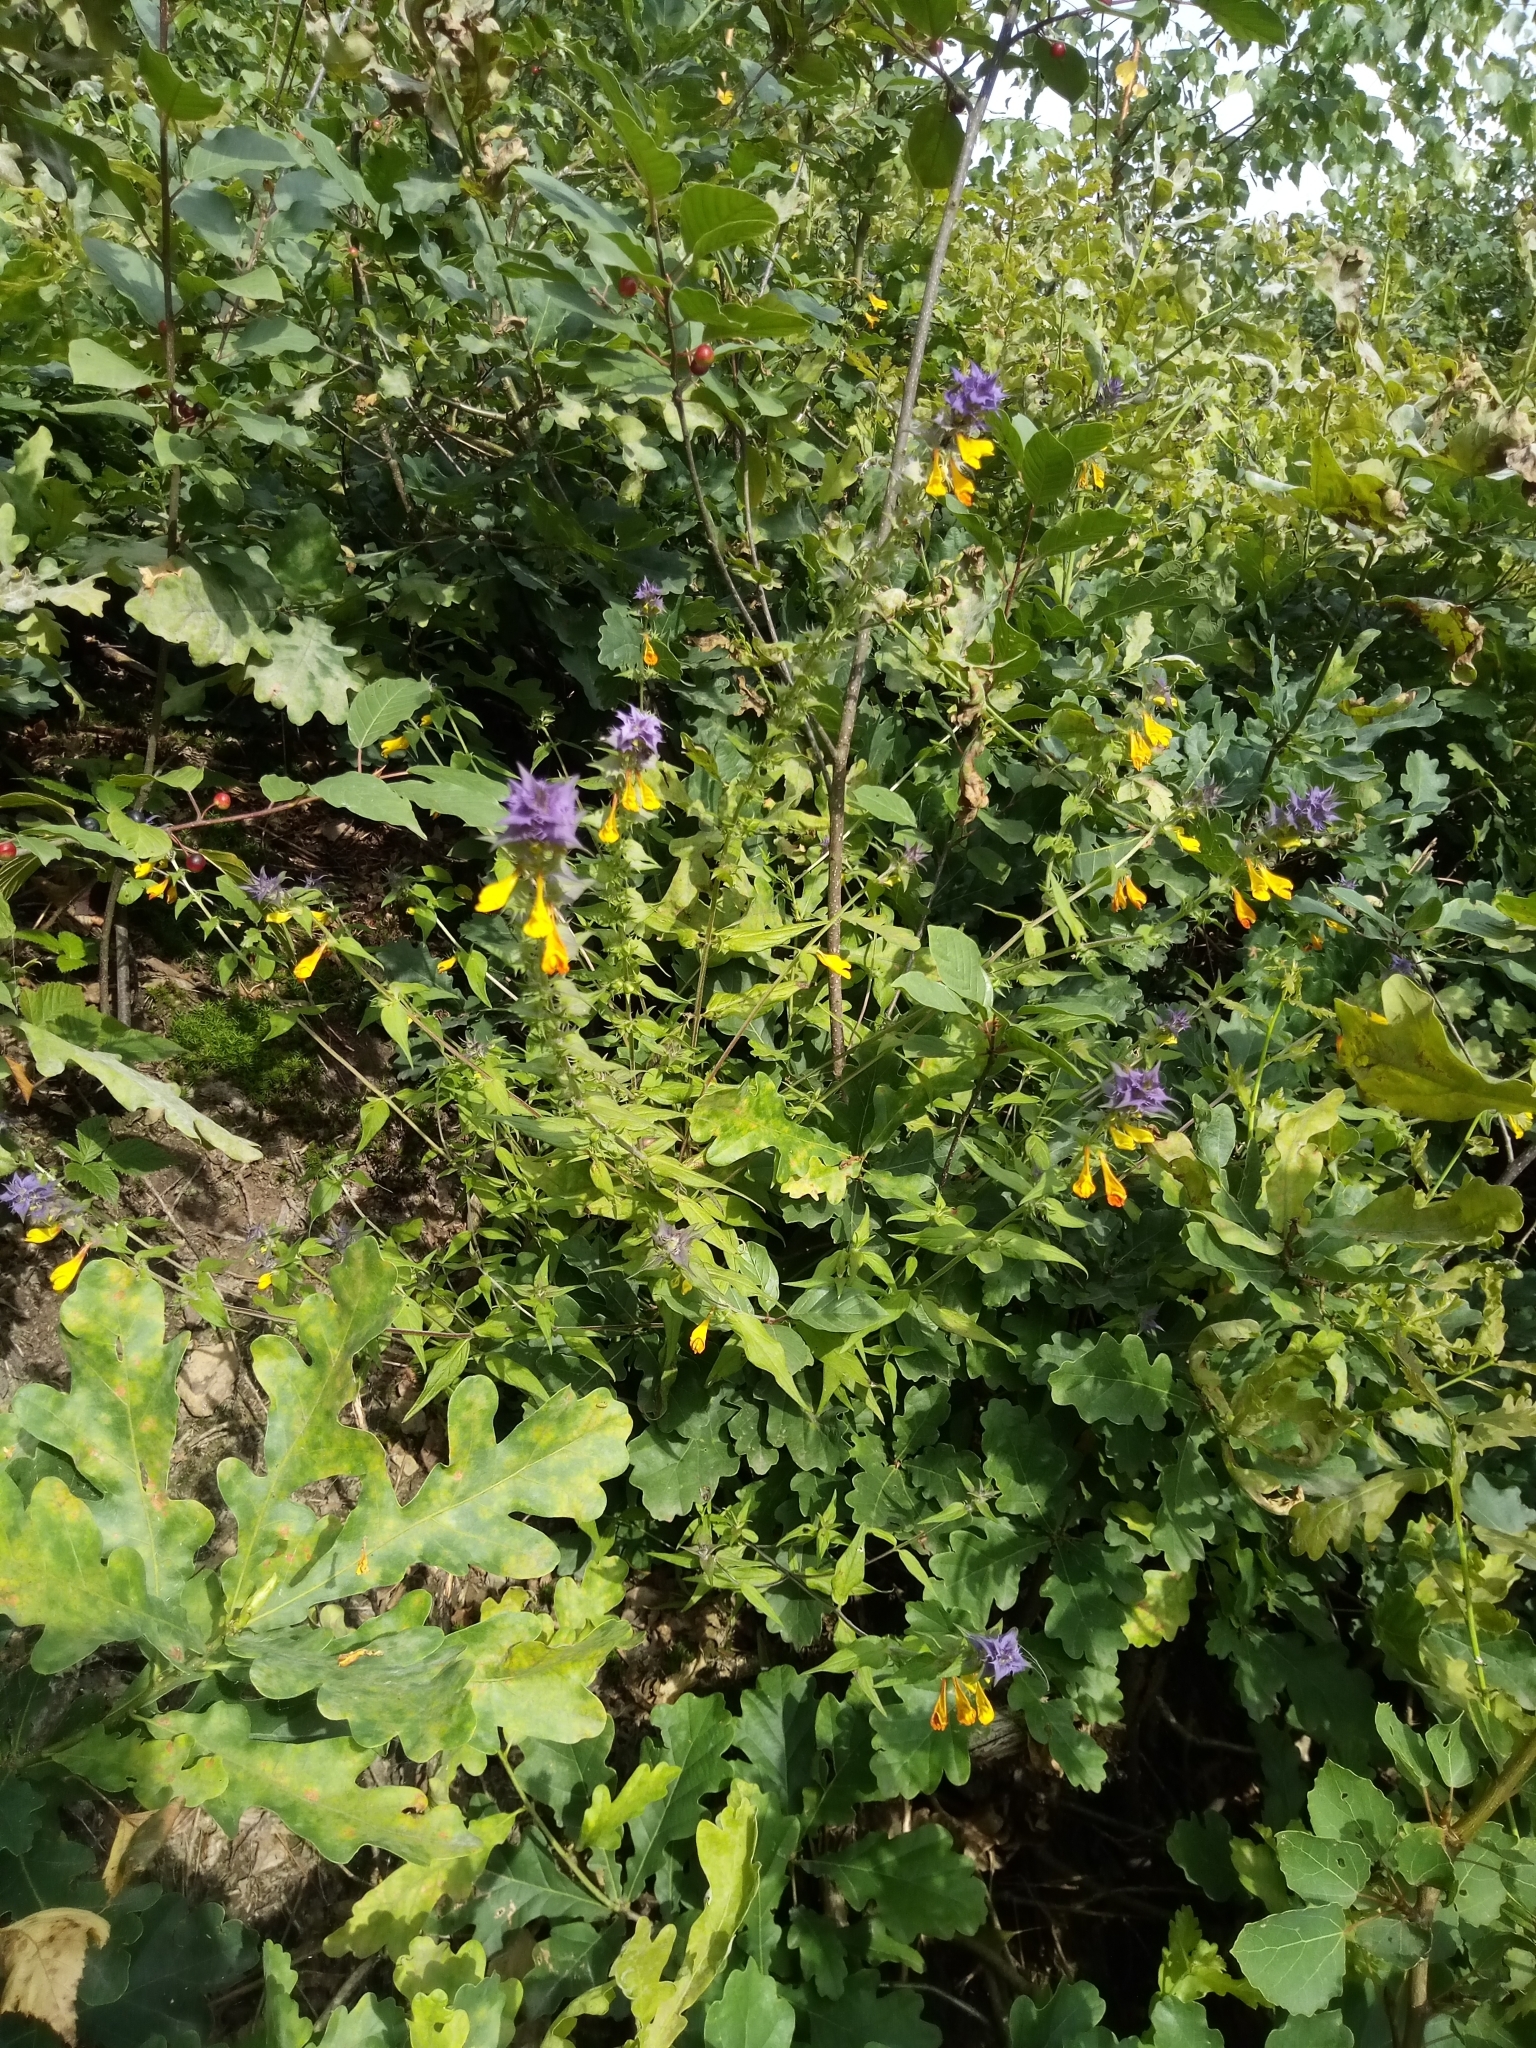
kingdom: Plantae
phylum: Tracheophyta
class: Magnoliopsida
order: Lamiales
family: Orobanchaceae
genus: Melampyrum
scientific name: Melampyrum nemorosum
